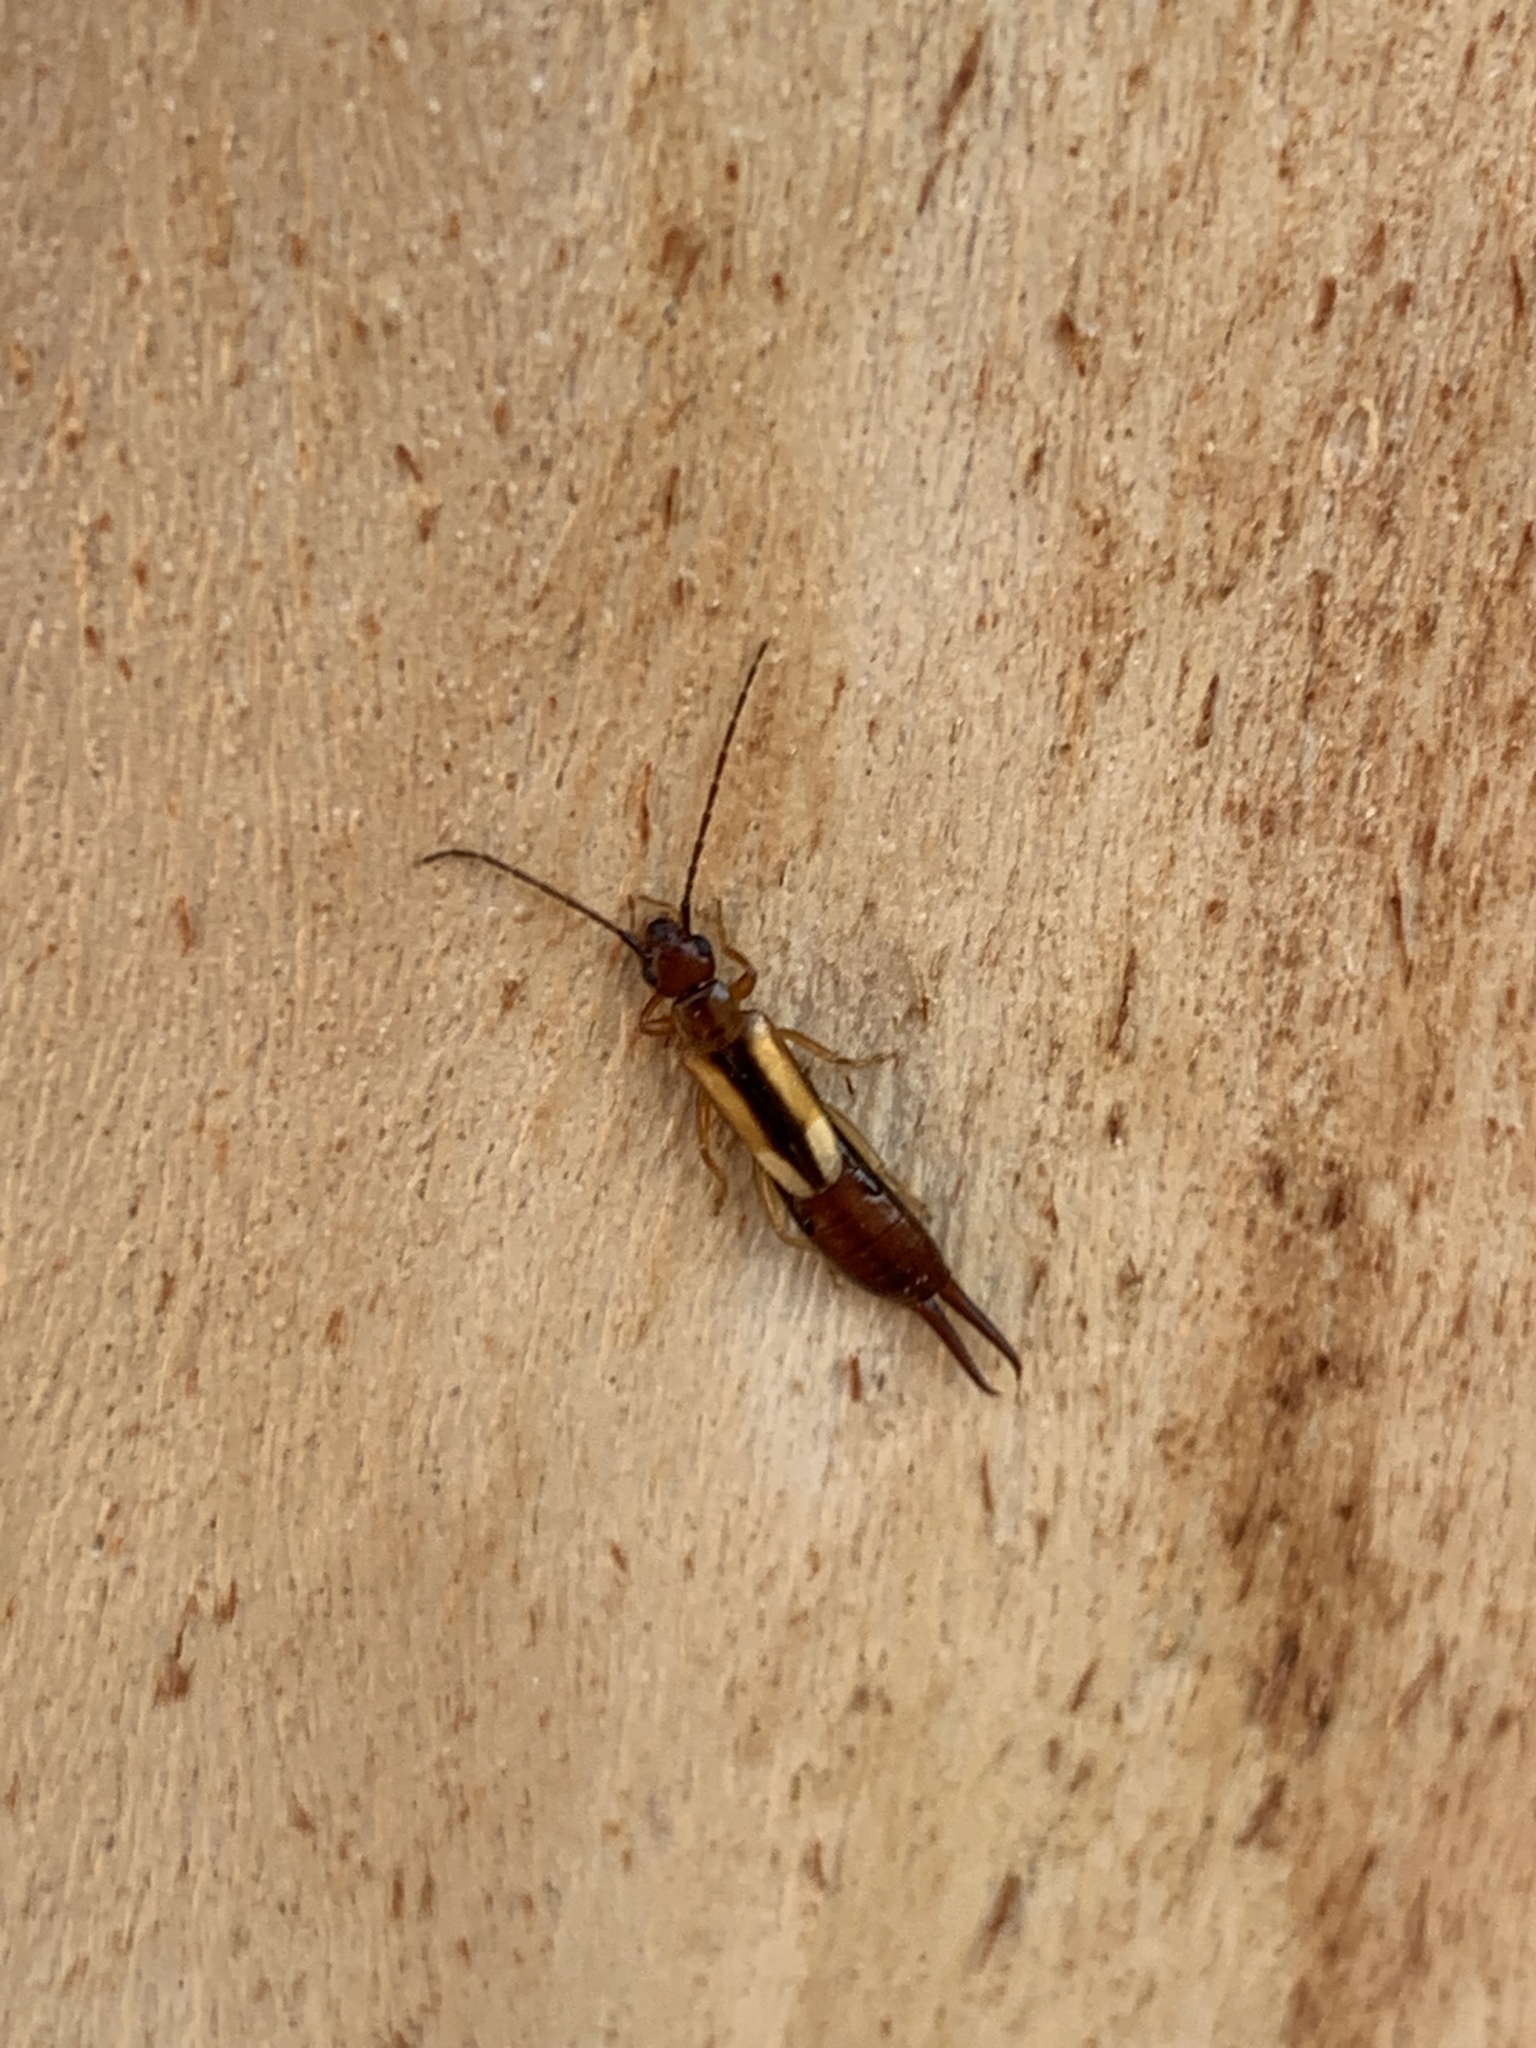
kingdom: Animalia
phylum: Arthropoda
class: Insecta
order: Dermaptera
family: Forficulidae
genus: Doru
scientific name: Doru
